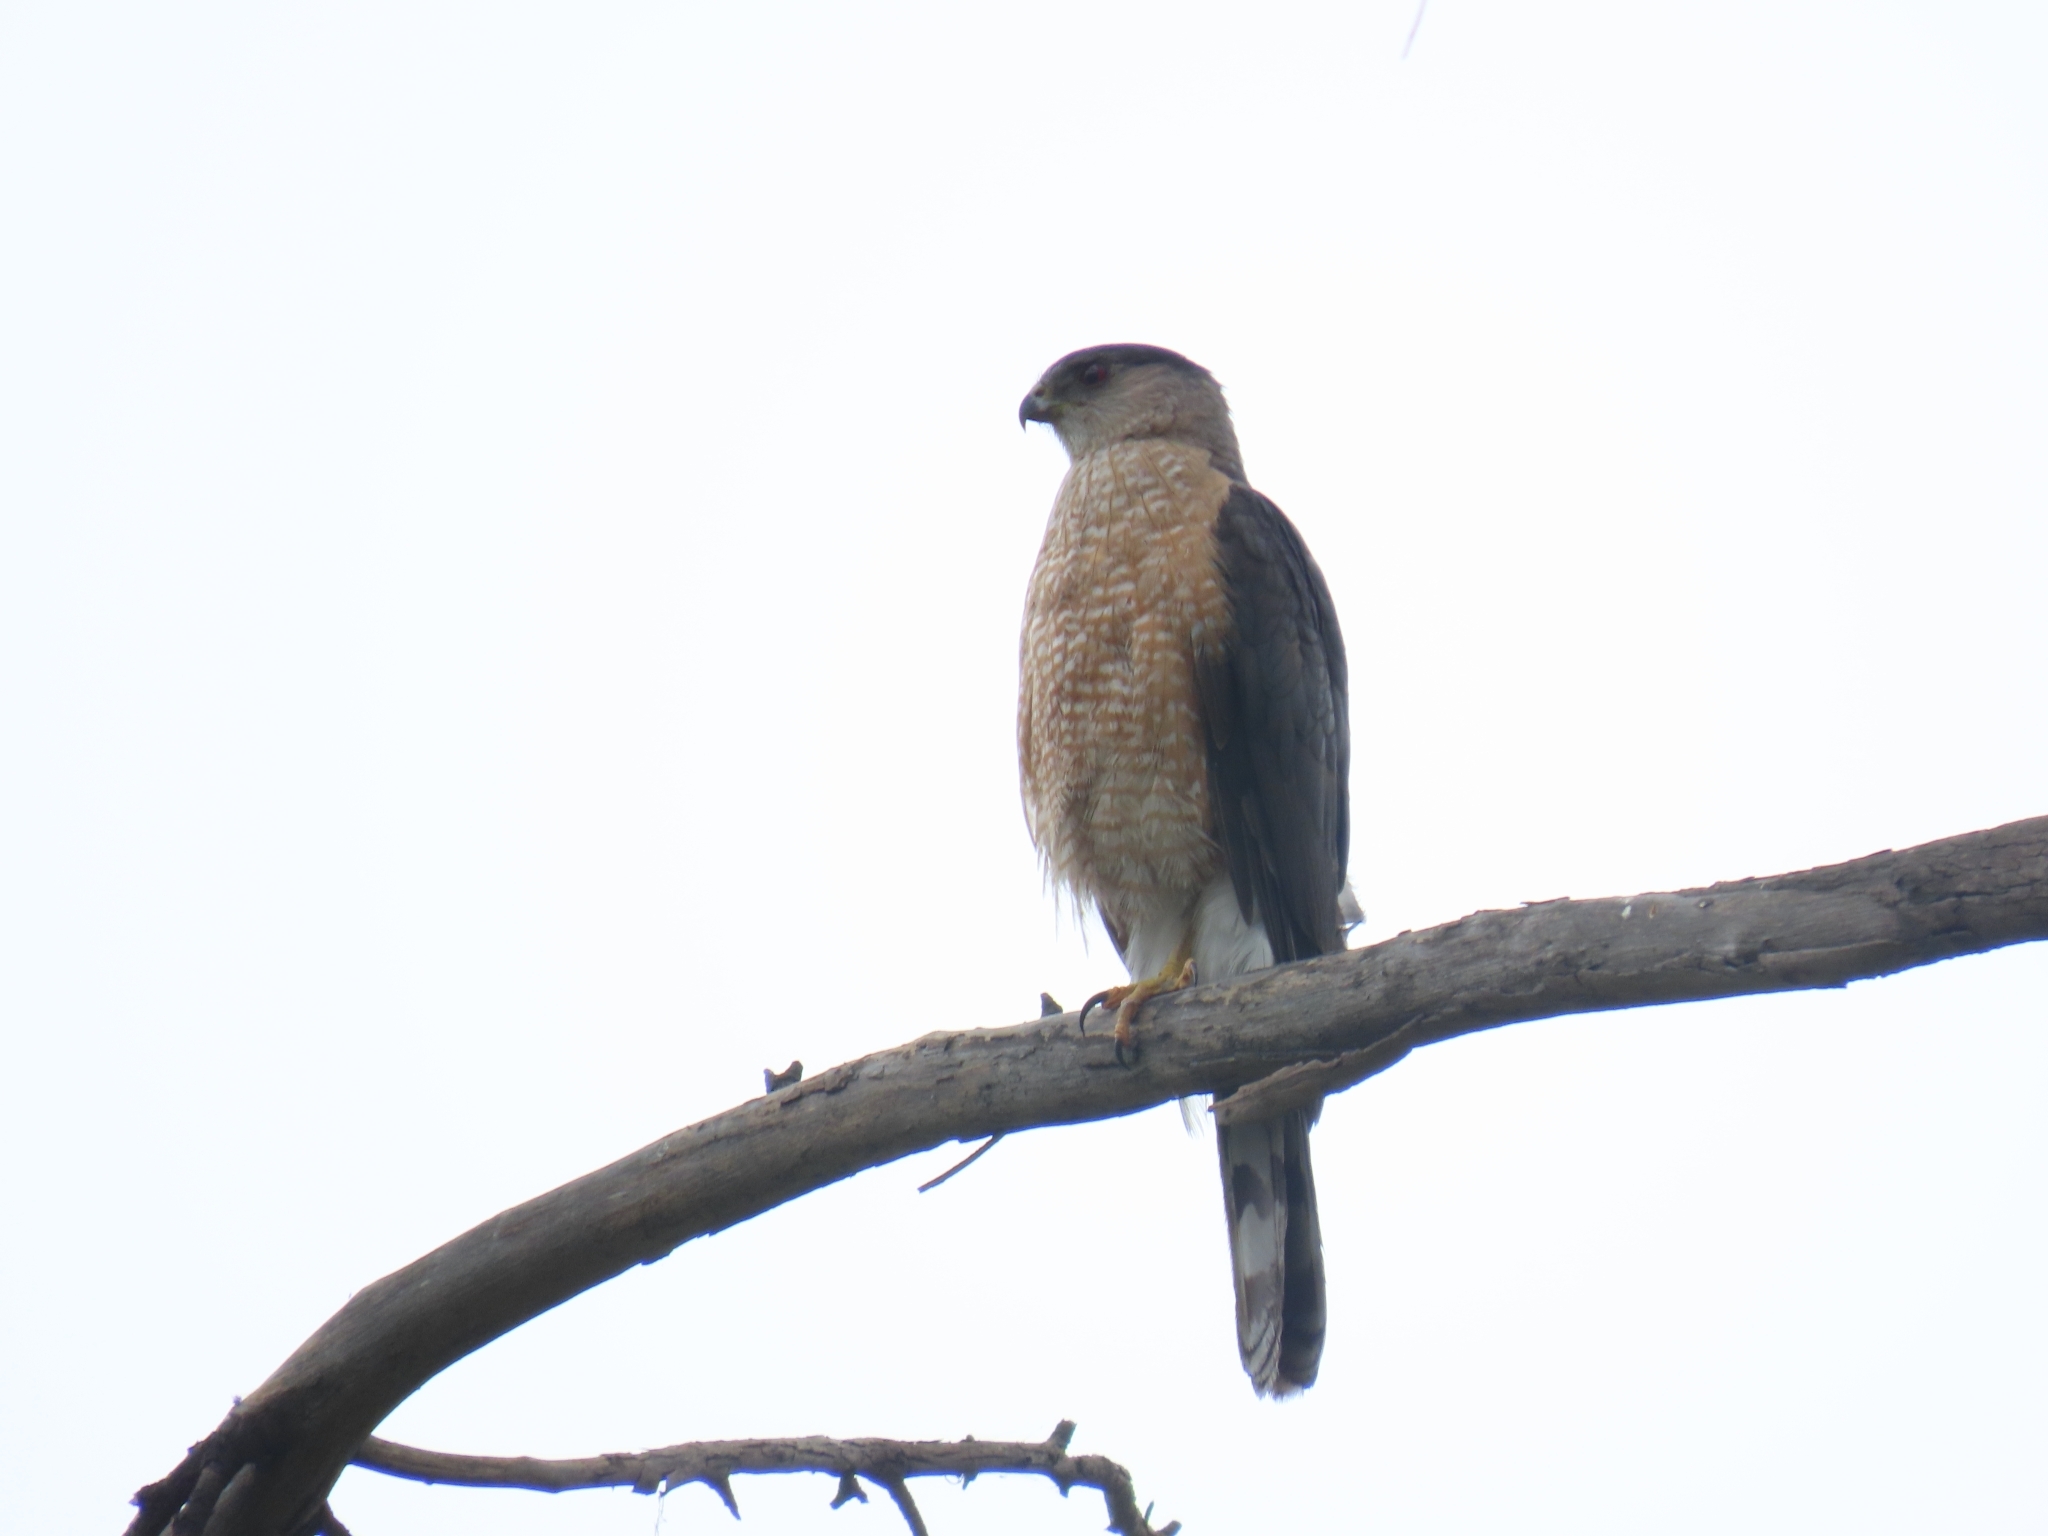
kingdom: Animalia
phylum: Chordata
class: Aves
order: Accipitriformes
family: Accipitridae
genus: Accipiter
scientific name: Accipiter cooperii
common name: Cooper's hawk
